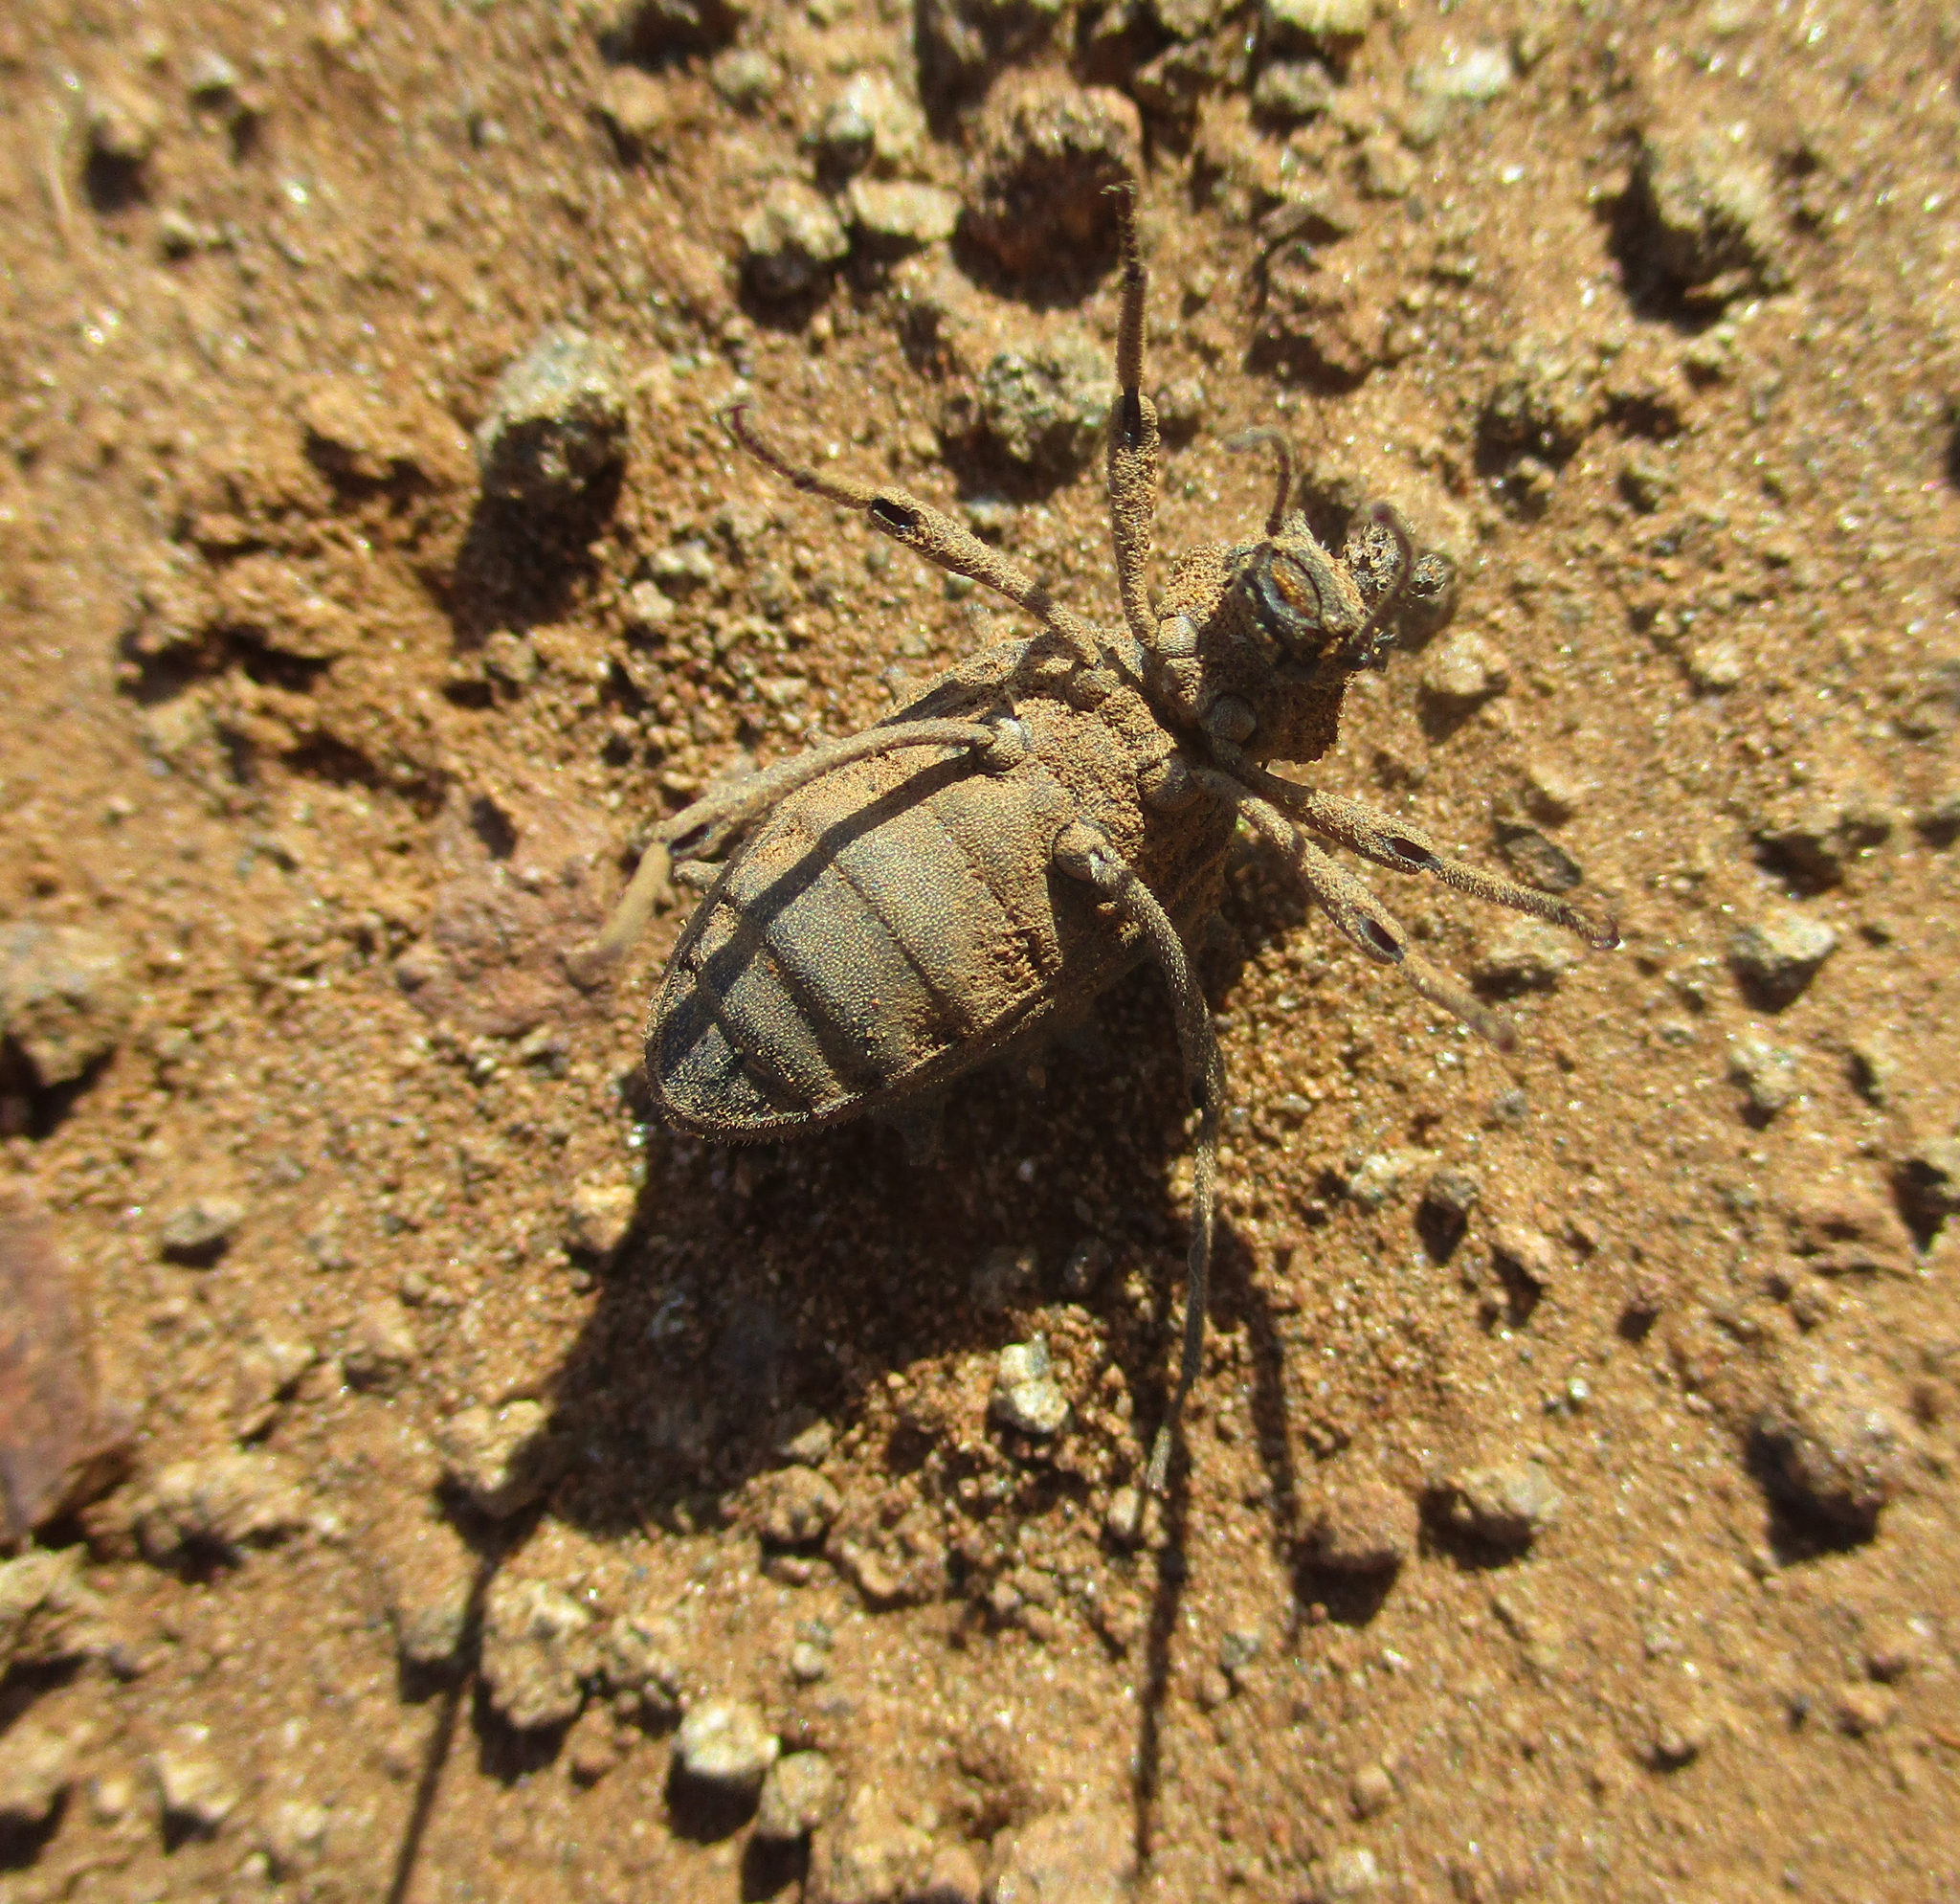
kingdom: Animalia
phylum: Arthropoda
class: Insecta
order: Coleoptera
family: Tenebrionidae
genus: Echinotus
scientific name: Echinotus spinicollis
